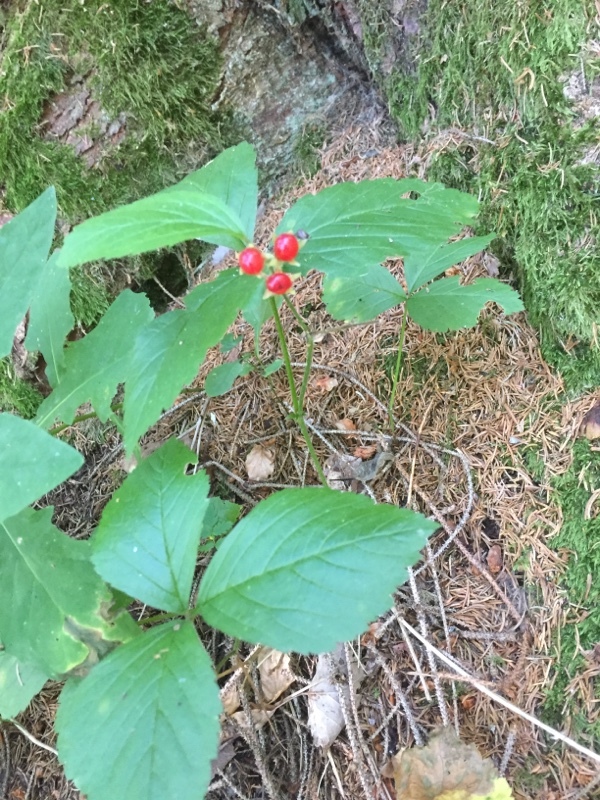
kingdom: Plantae
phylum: Tracheophyta
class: Magnoliopsida
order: Rosales
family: Rosaceae
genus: Rubus
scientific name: Rubus saxatilis
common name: Stone bramble
